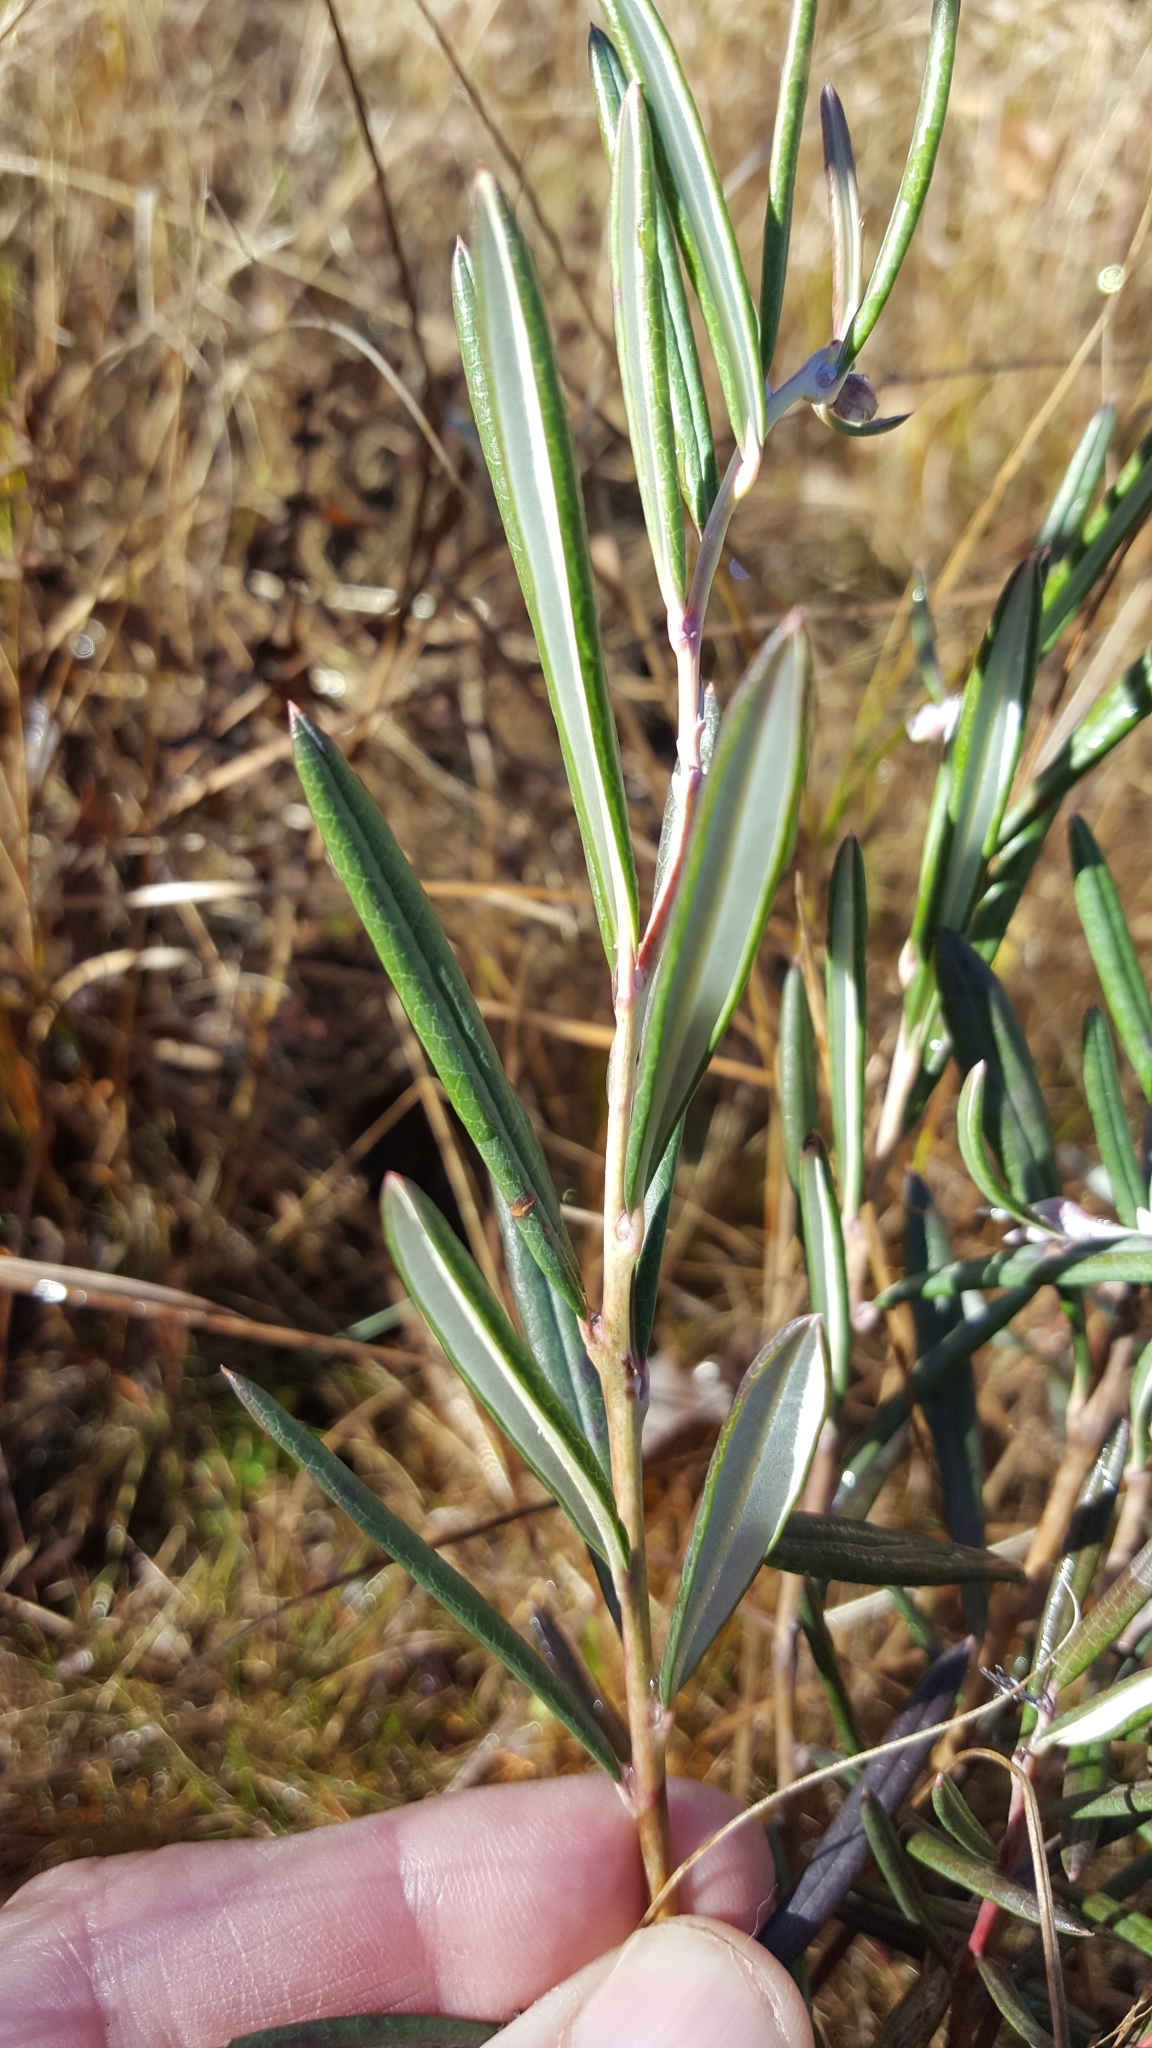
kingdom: Plantae
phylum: Tracheophyta
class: Magnoliopsida
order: Ericales
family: Ericaceae
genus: Andromeda
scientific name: Andromeda polifolia
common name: Bog-rosemary
